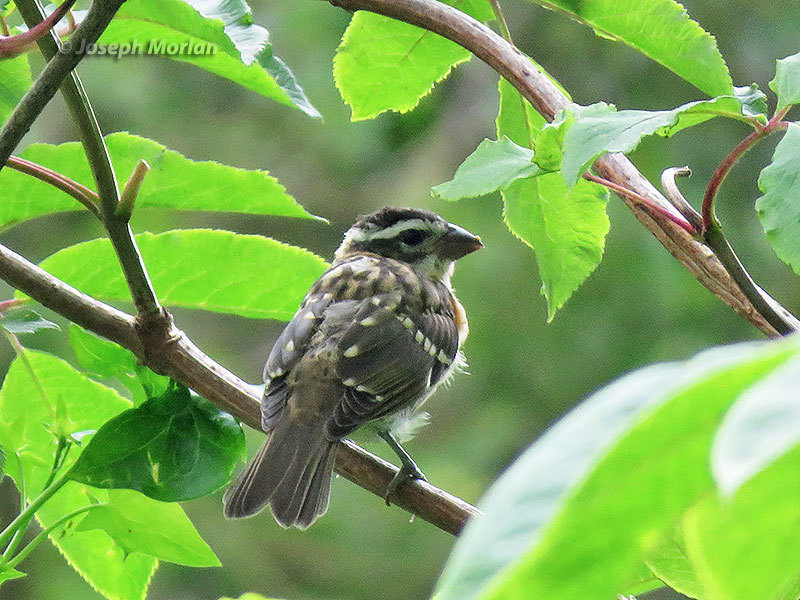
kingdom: Animalia
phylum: Chordata
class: Aves
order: Passeriformes
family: Cardinalidae
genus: Pheucticus
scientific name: Pheucticus melanocephalus
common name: Black-headed grosbeak
